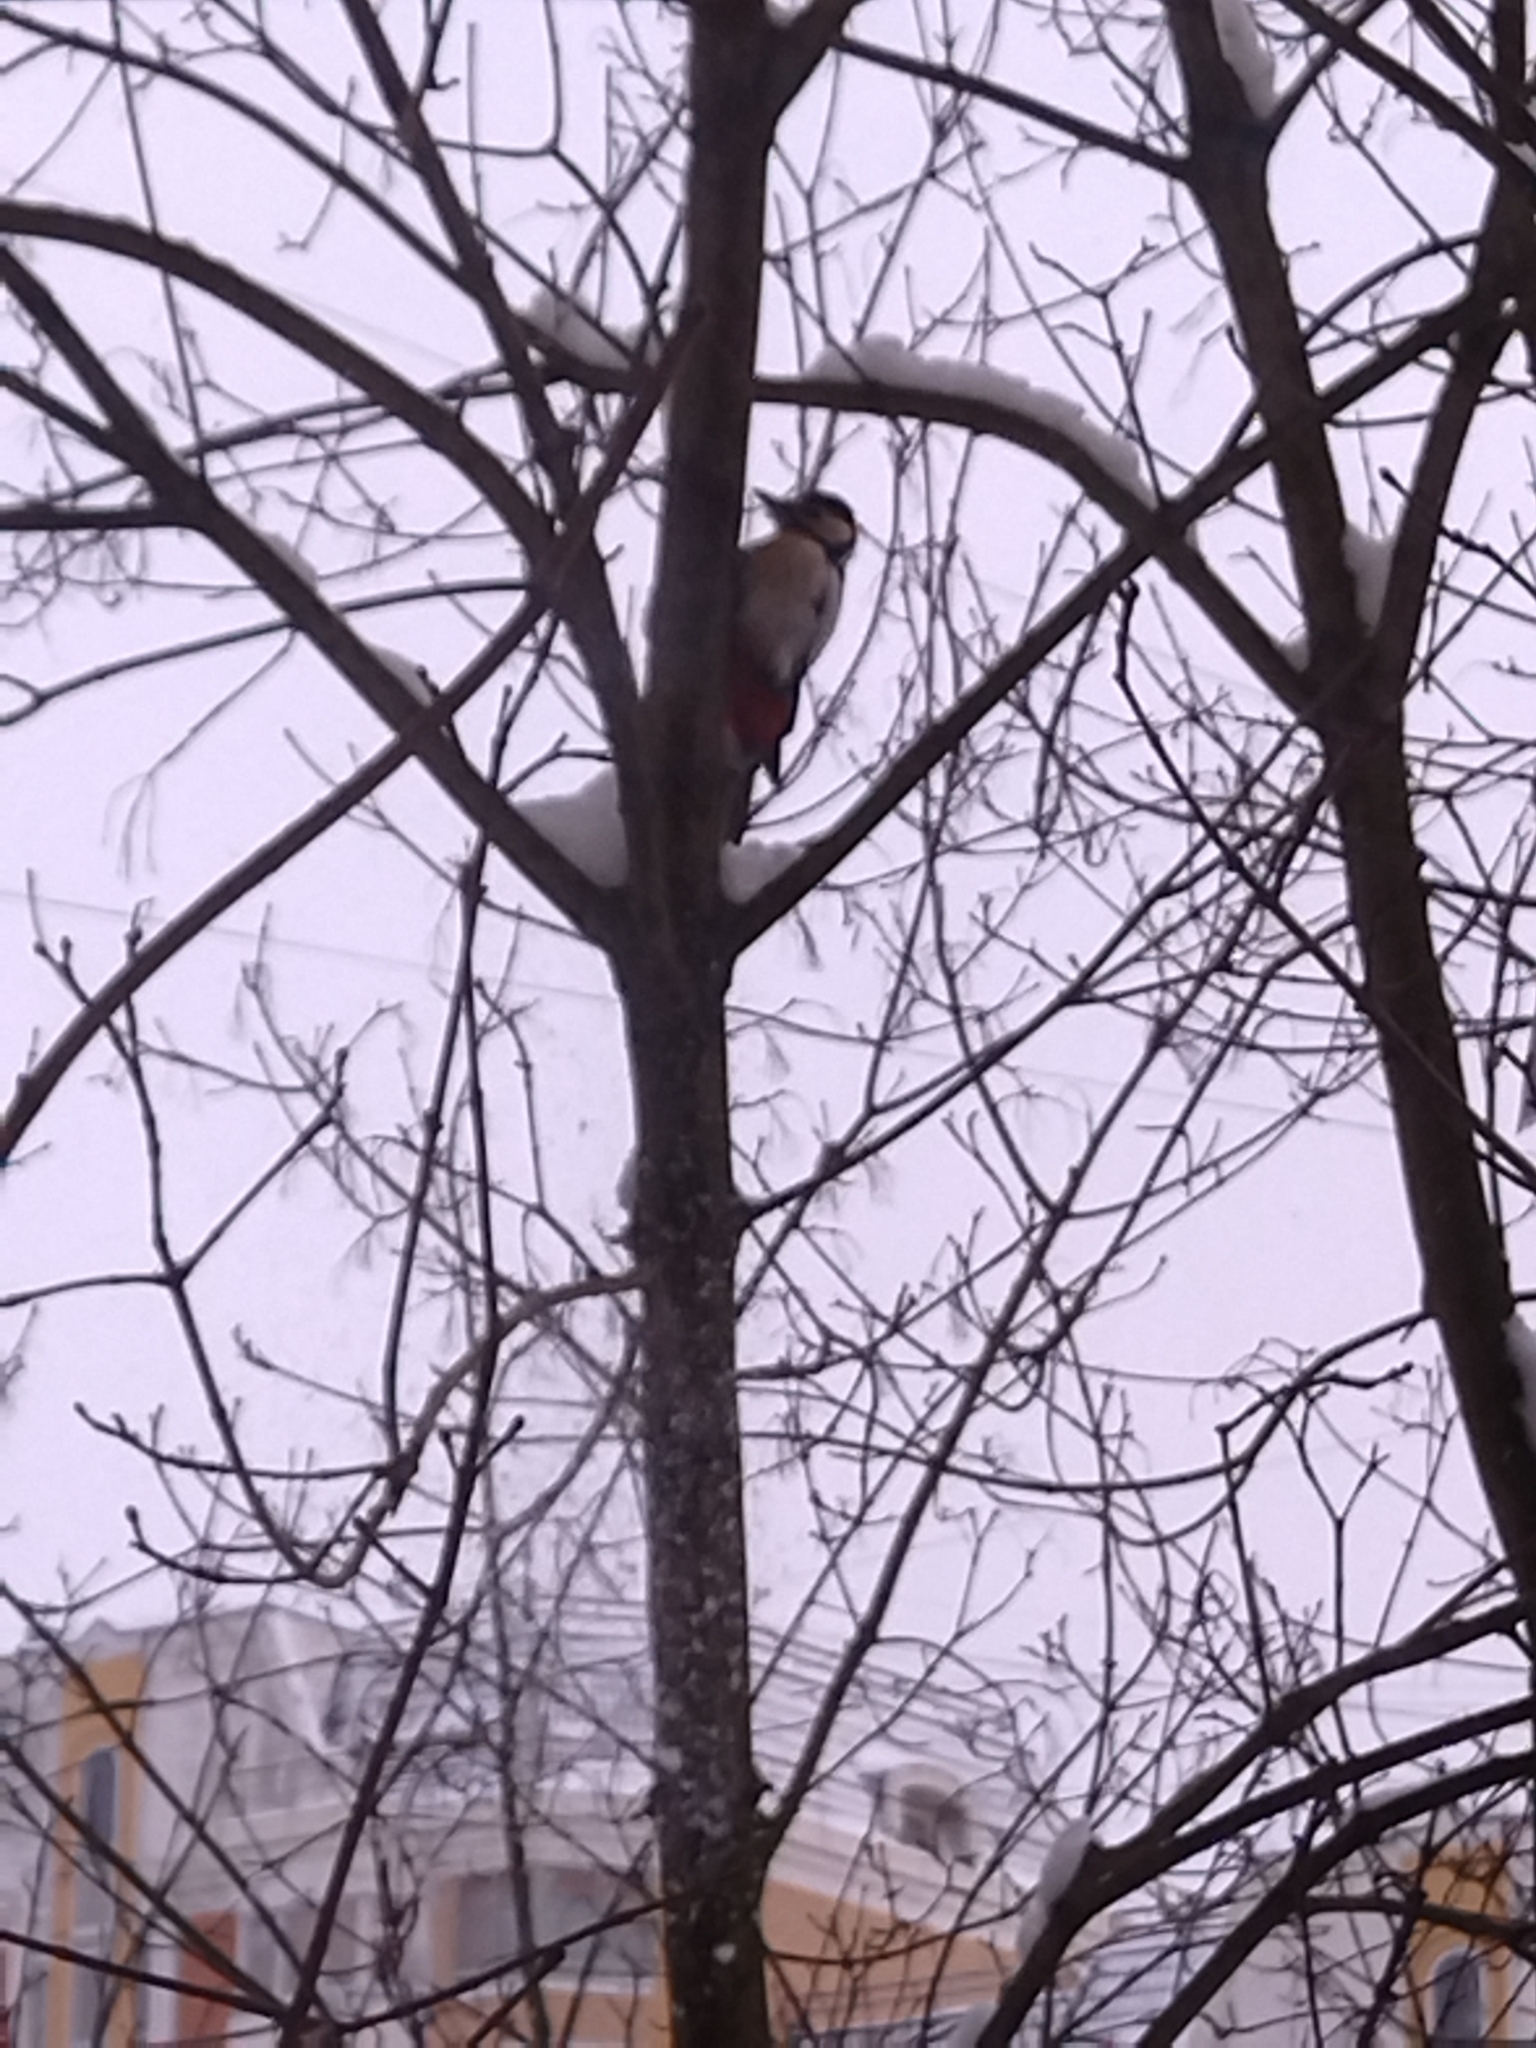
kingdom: Animalia
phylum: Chordata
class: Aves
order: Piciformes
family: Picidae
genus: Dendrocopos
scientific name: Dendrocopos major
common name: Great spotted woodpecker
